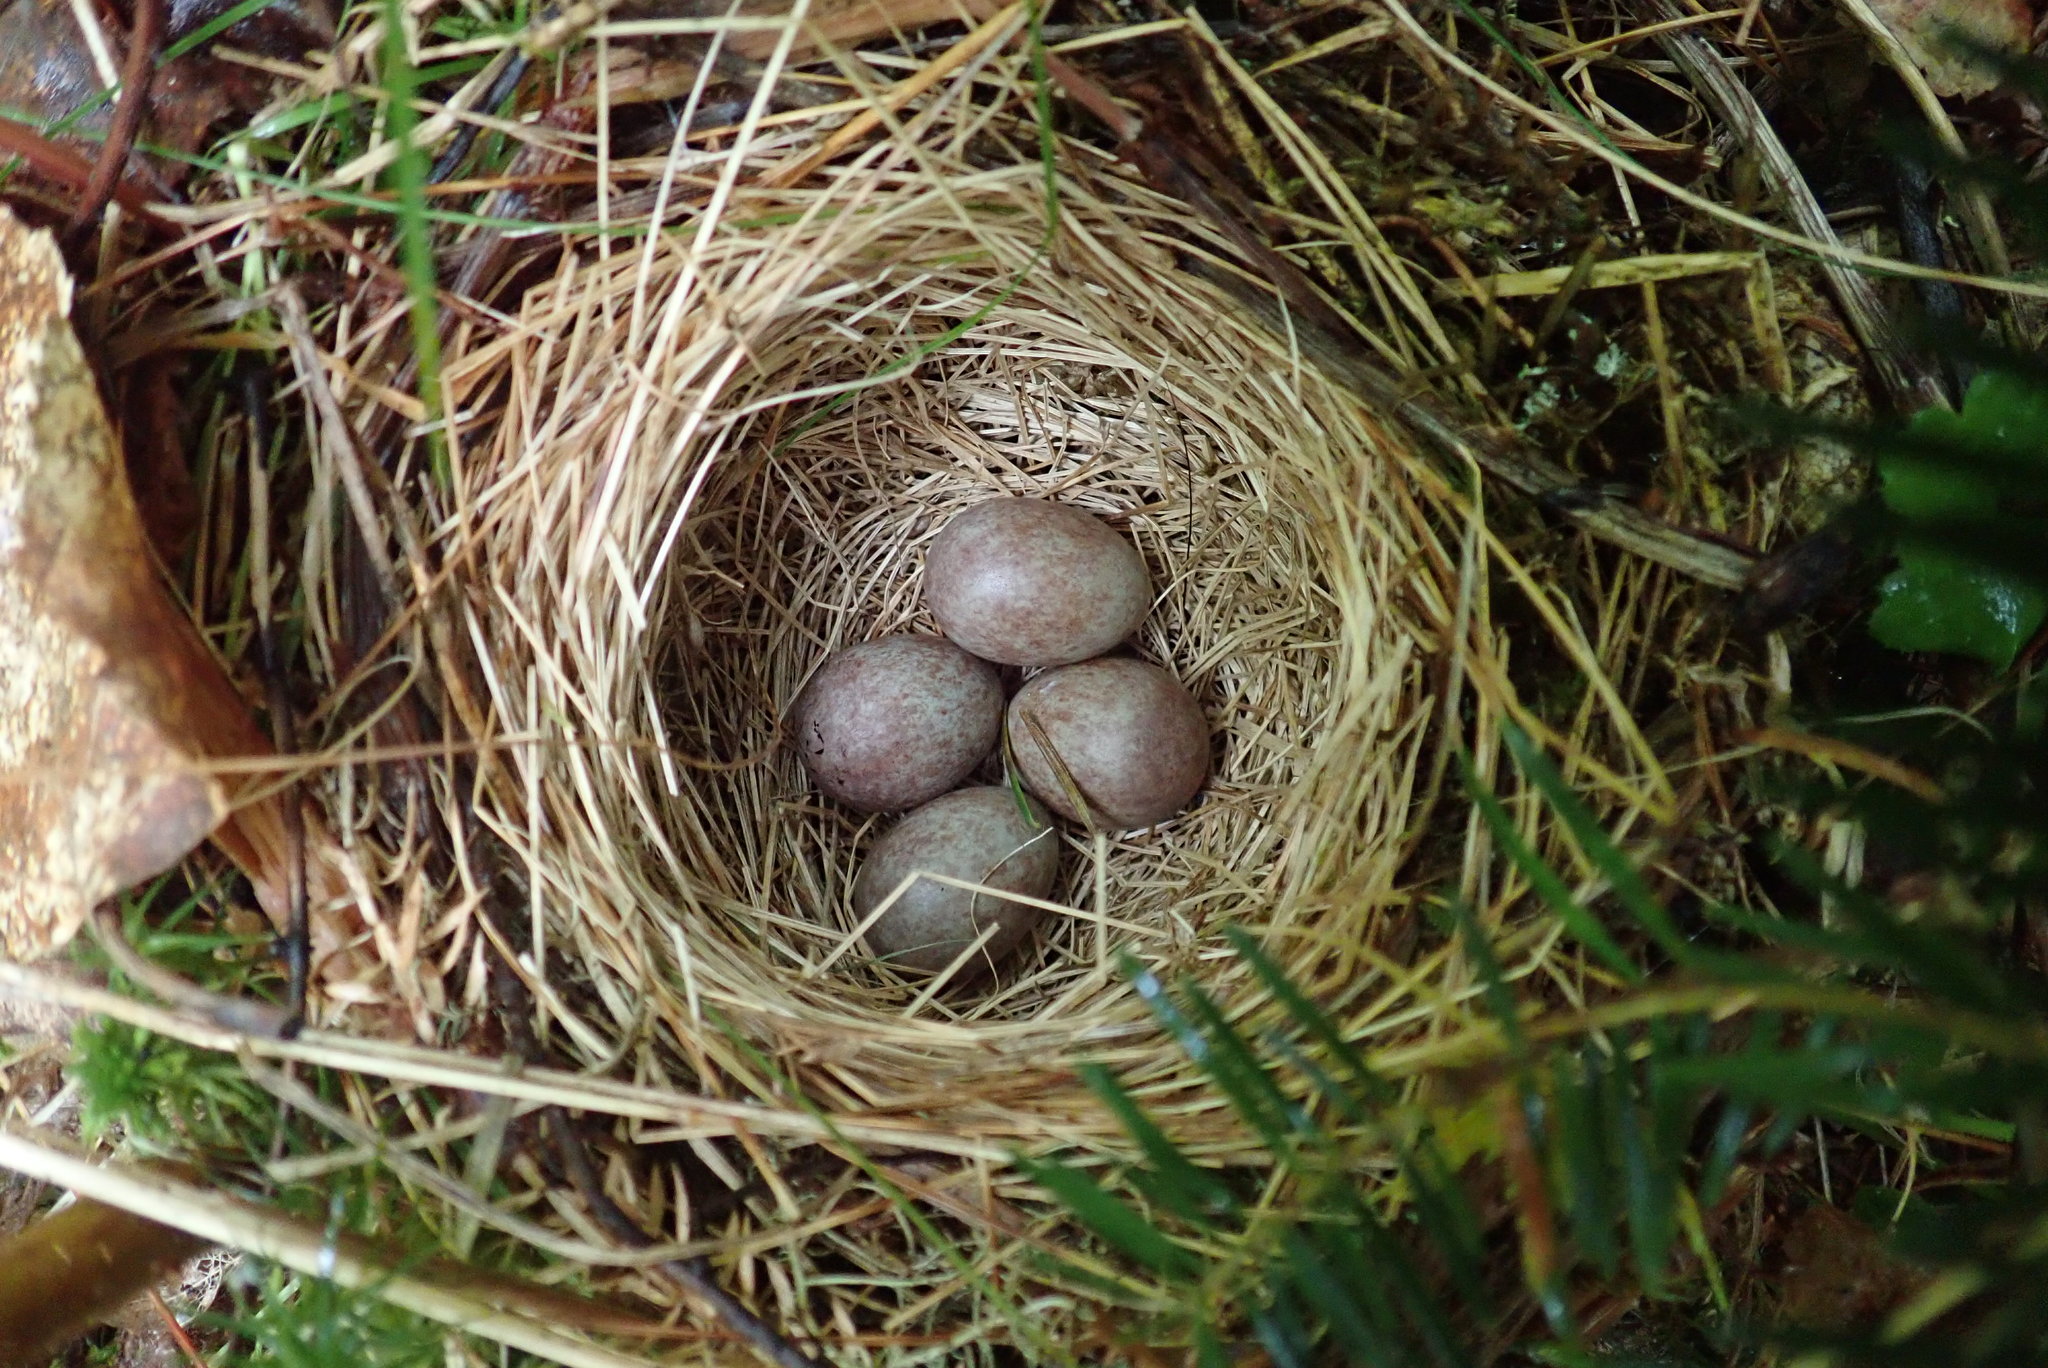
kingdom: Animalia
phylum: Chordata
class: Aves
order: Passeriformes
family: Passerellidae
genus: Zonotrichia
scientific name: Zonotrichia albicollis
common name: White-throated sparrow
